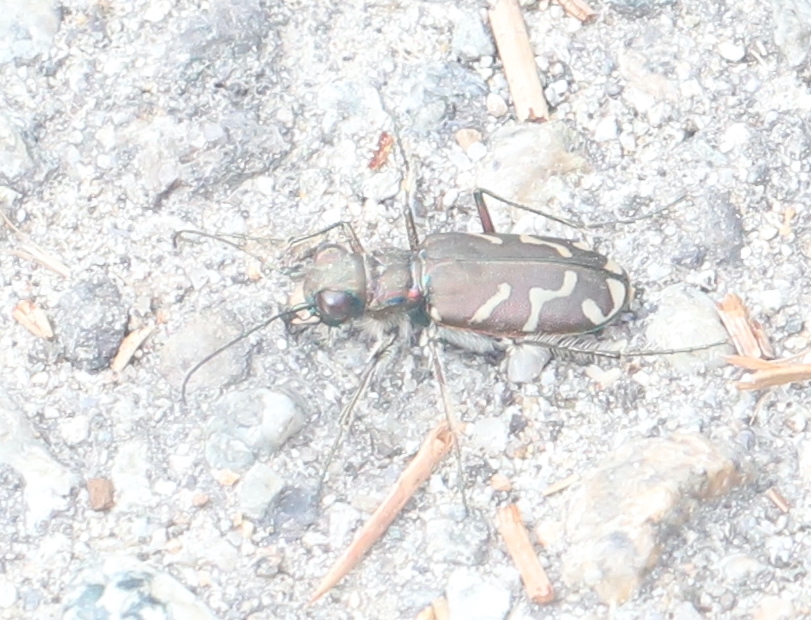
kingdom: Animalia
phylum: Arthropoda
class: Insecta
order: Coleoptera
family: Carabidae
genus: Cicindela
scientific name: Cicindela tranquebarica
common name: Oblique-lined tiger beetle
